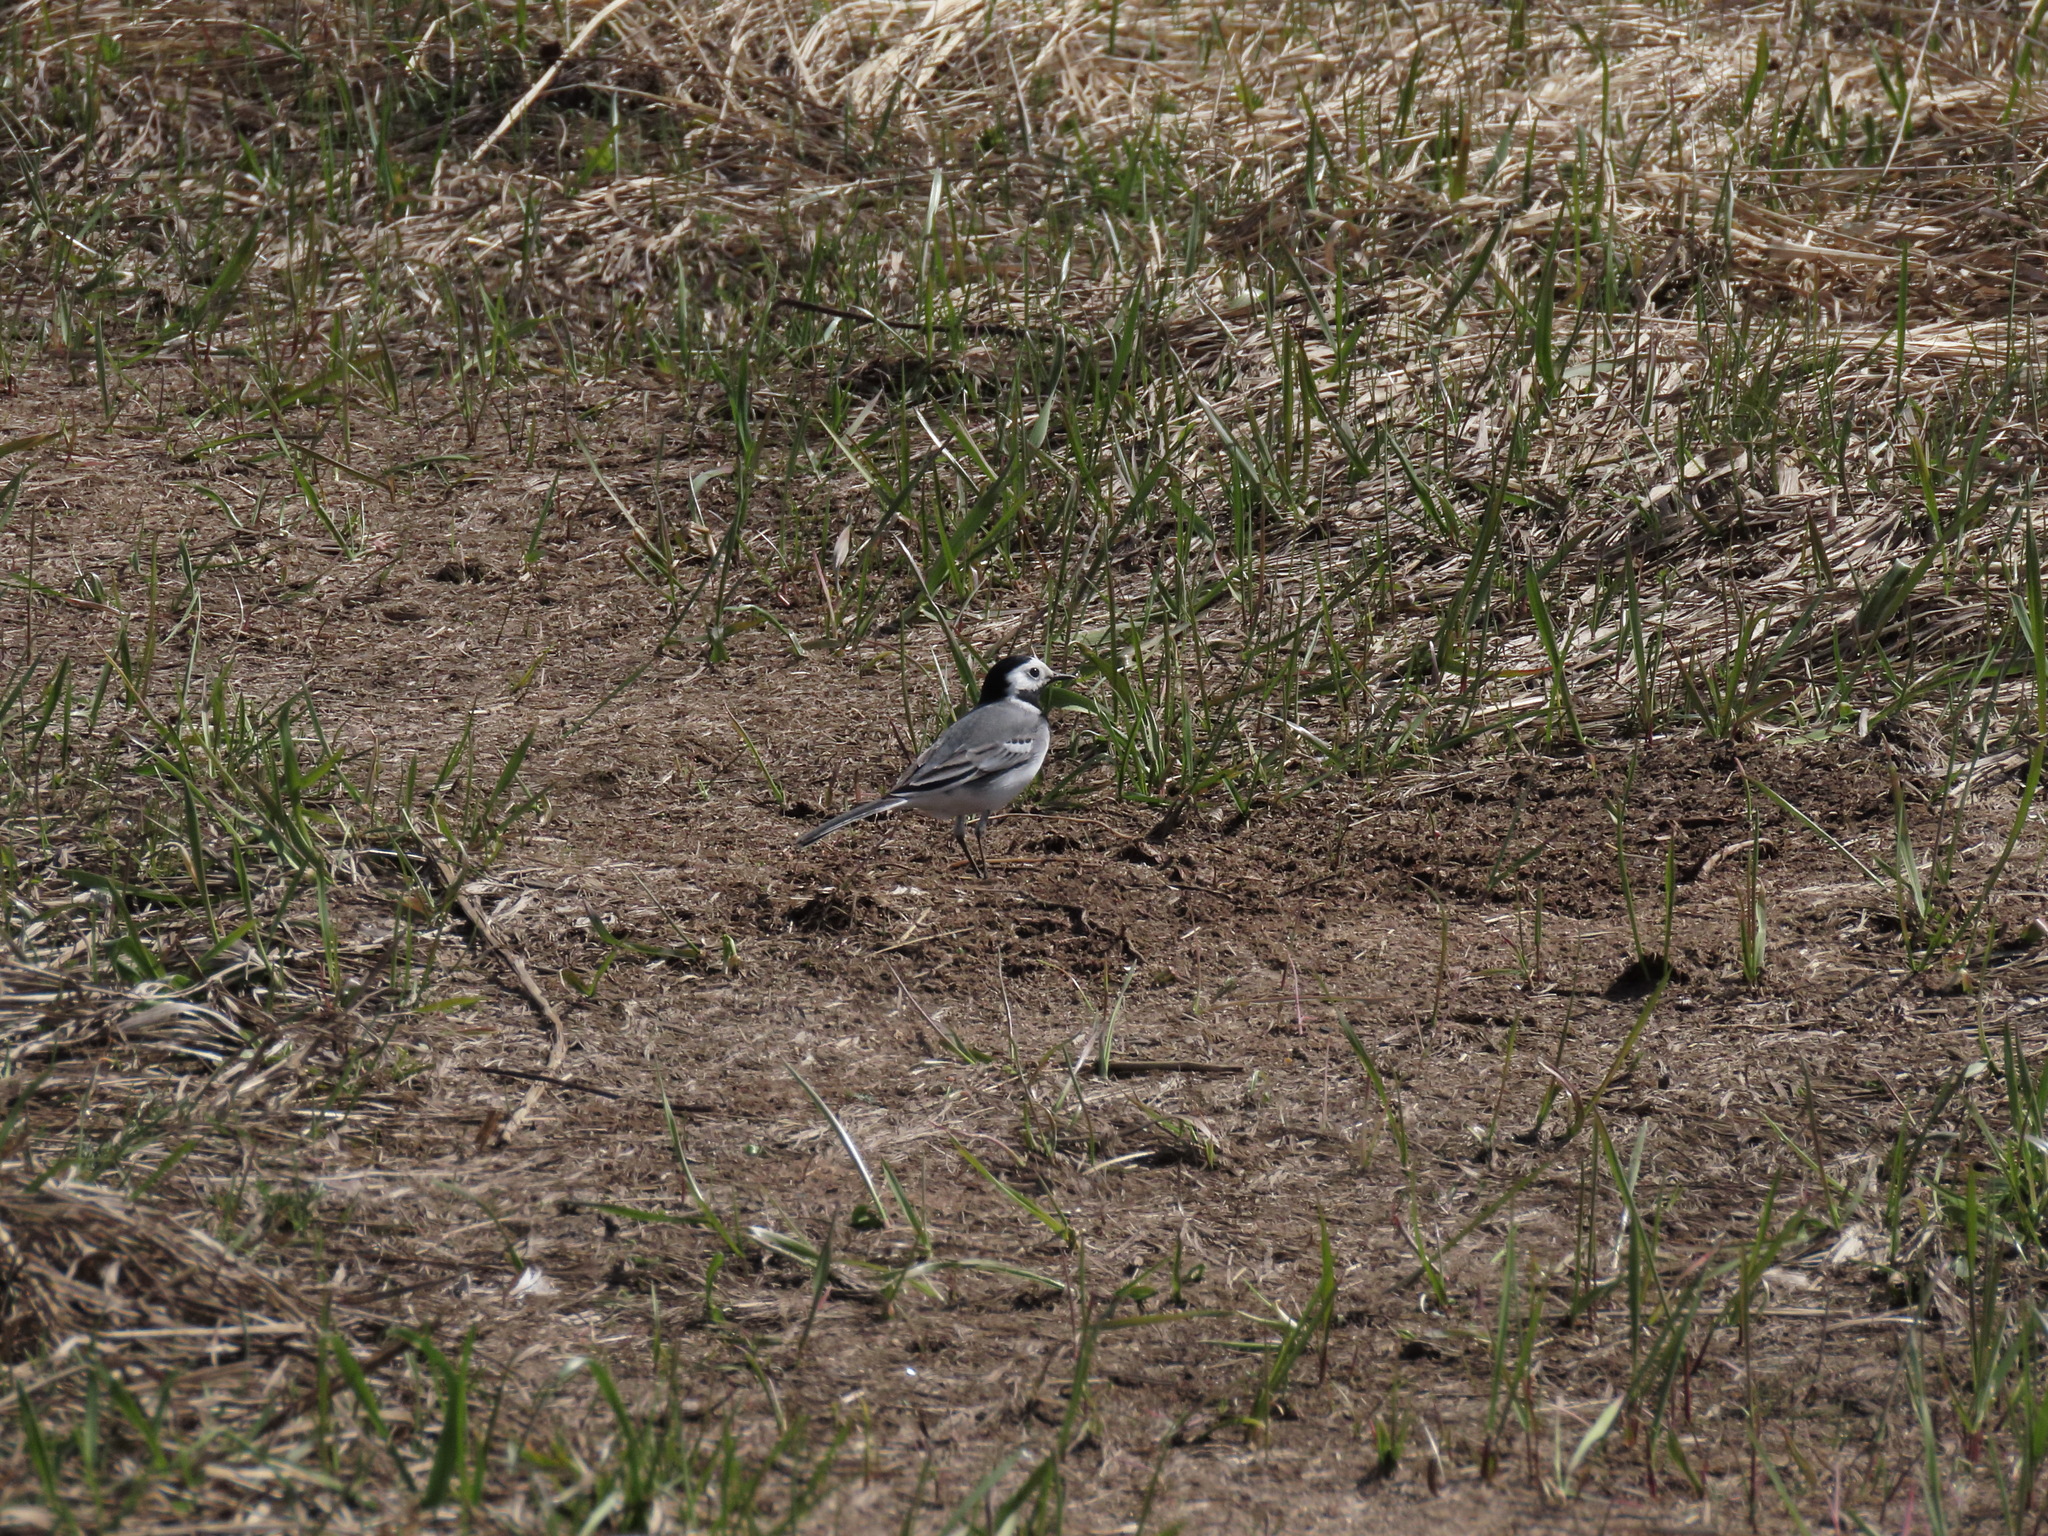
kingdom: Animalia
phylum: Chordata
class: Aves
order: Passeriformes
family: Motacillidae
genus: Motacilla
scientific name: Motacilla alba
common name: White wagtail
